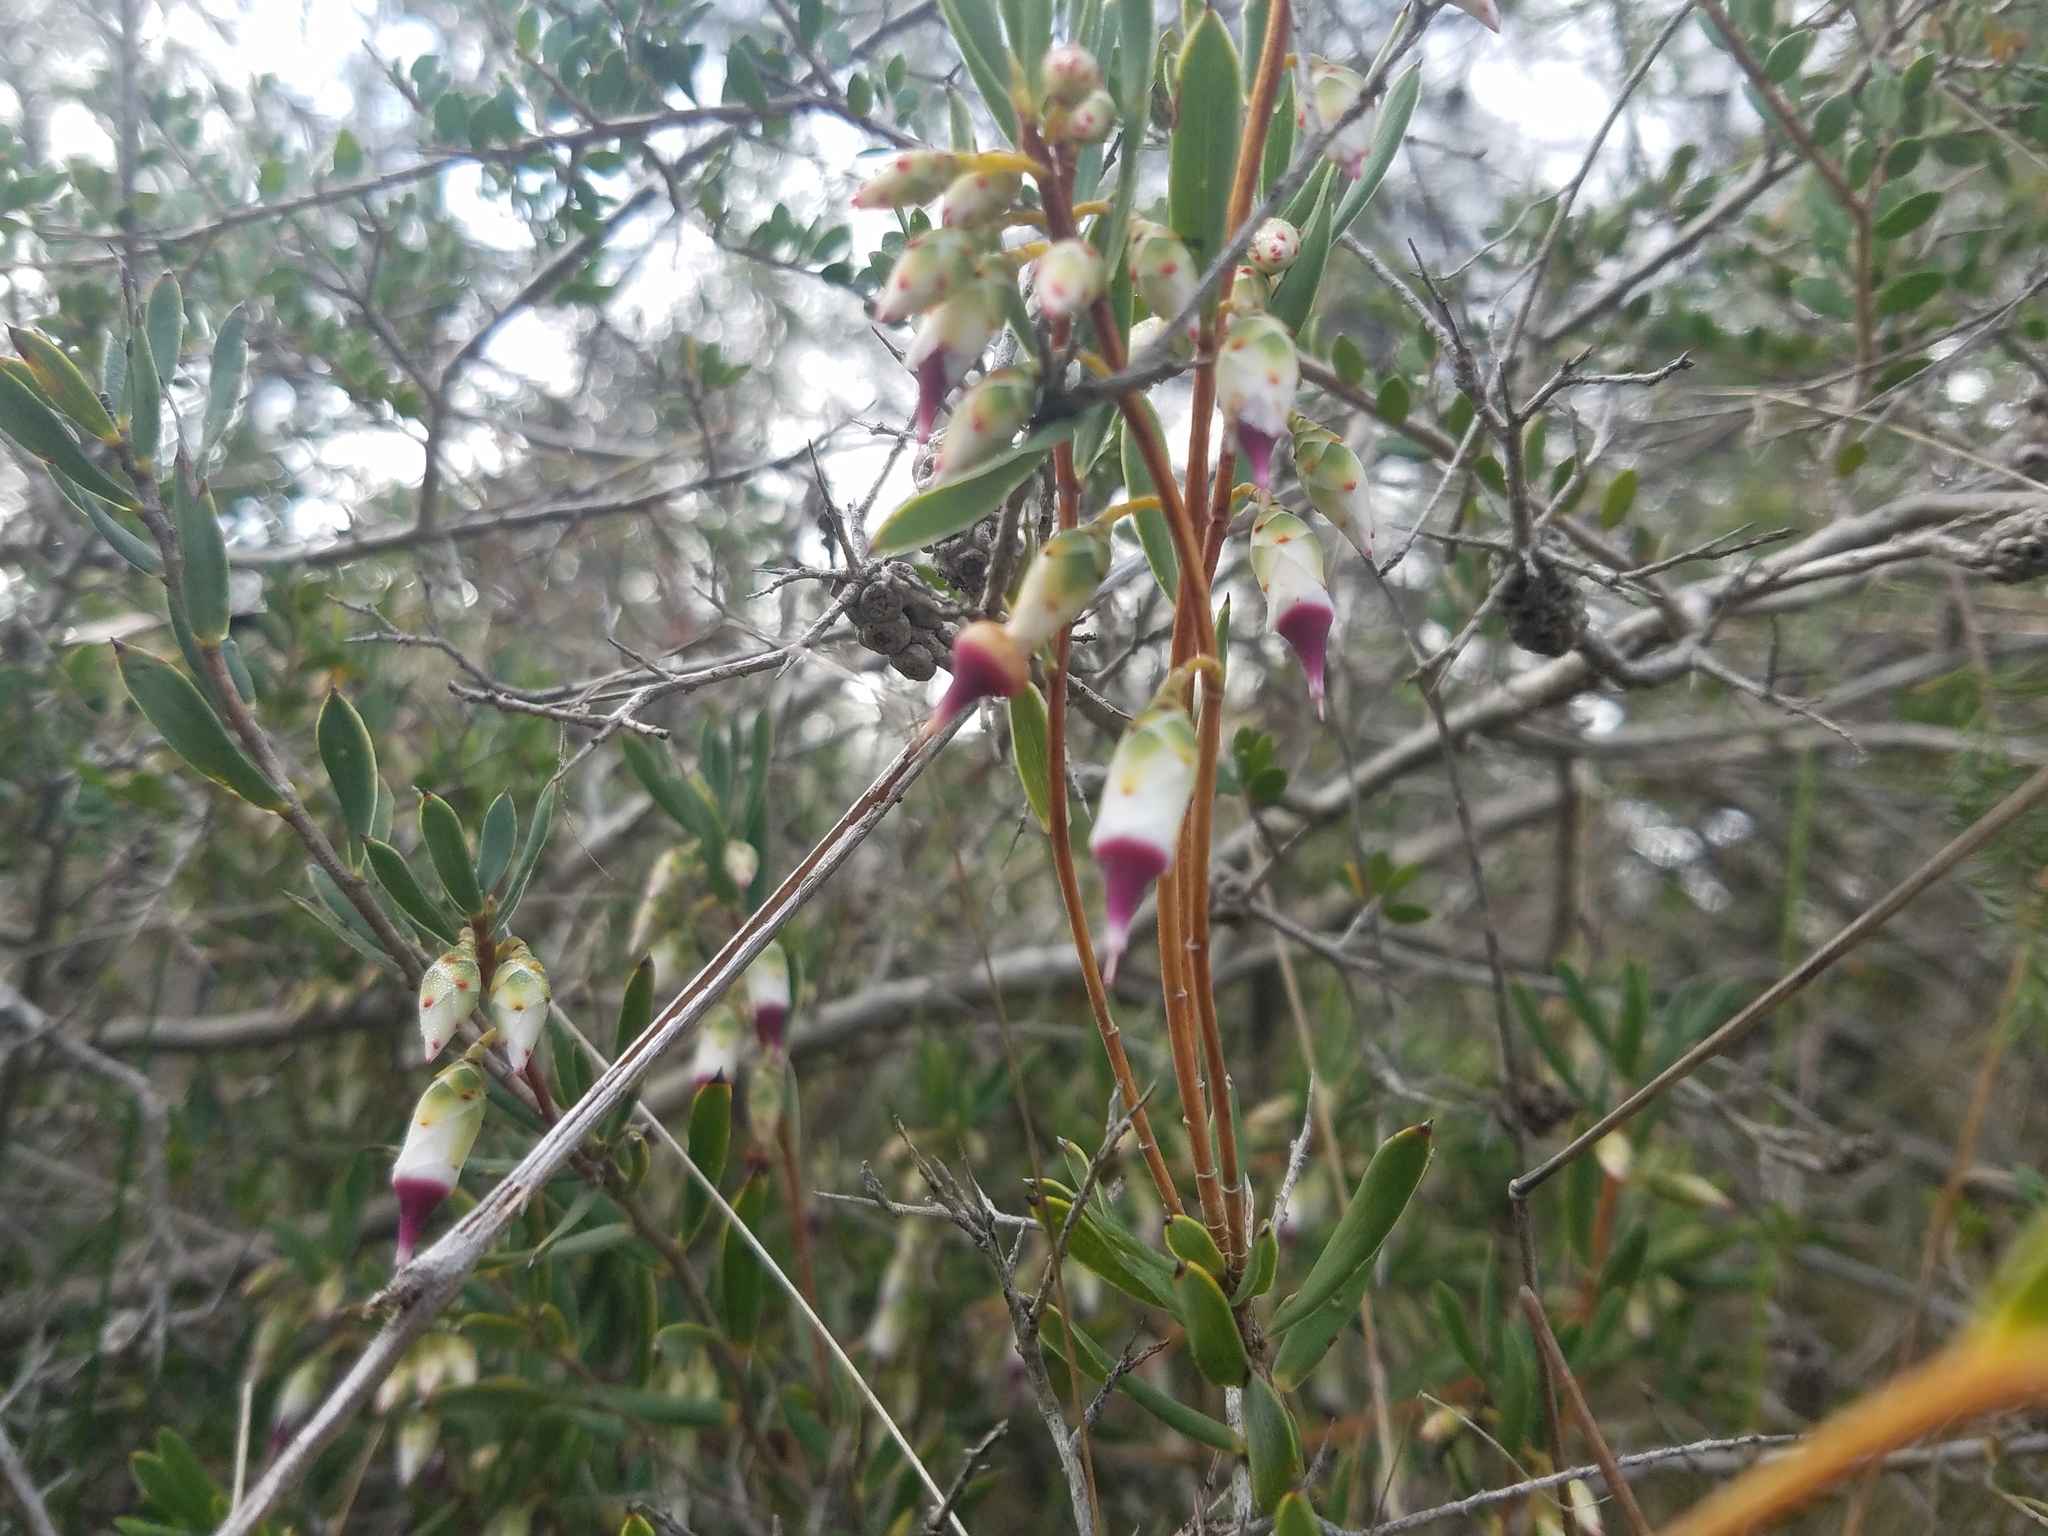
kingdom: Plantae
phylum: Tracheophyta
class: Magnoliopsida
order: Ericales
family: Ericaceae
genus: Conostephium
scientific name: Conostephium pendulum
